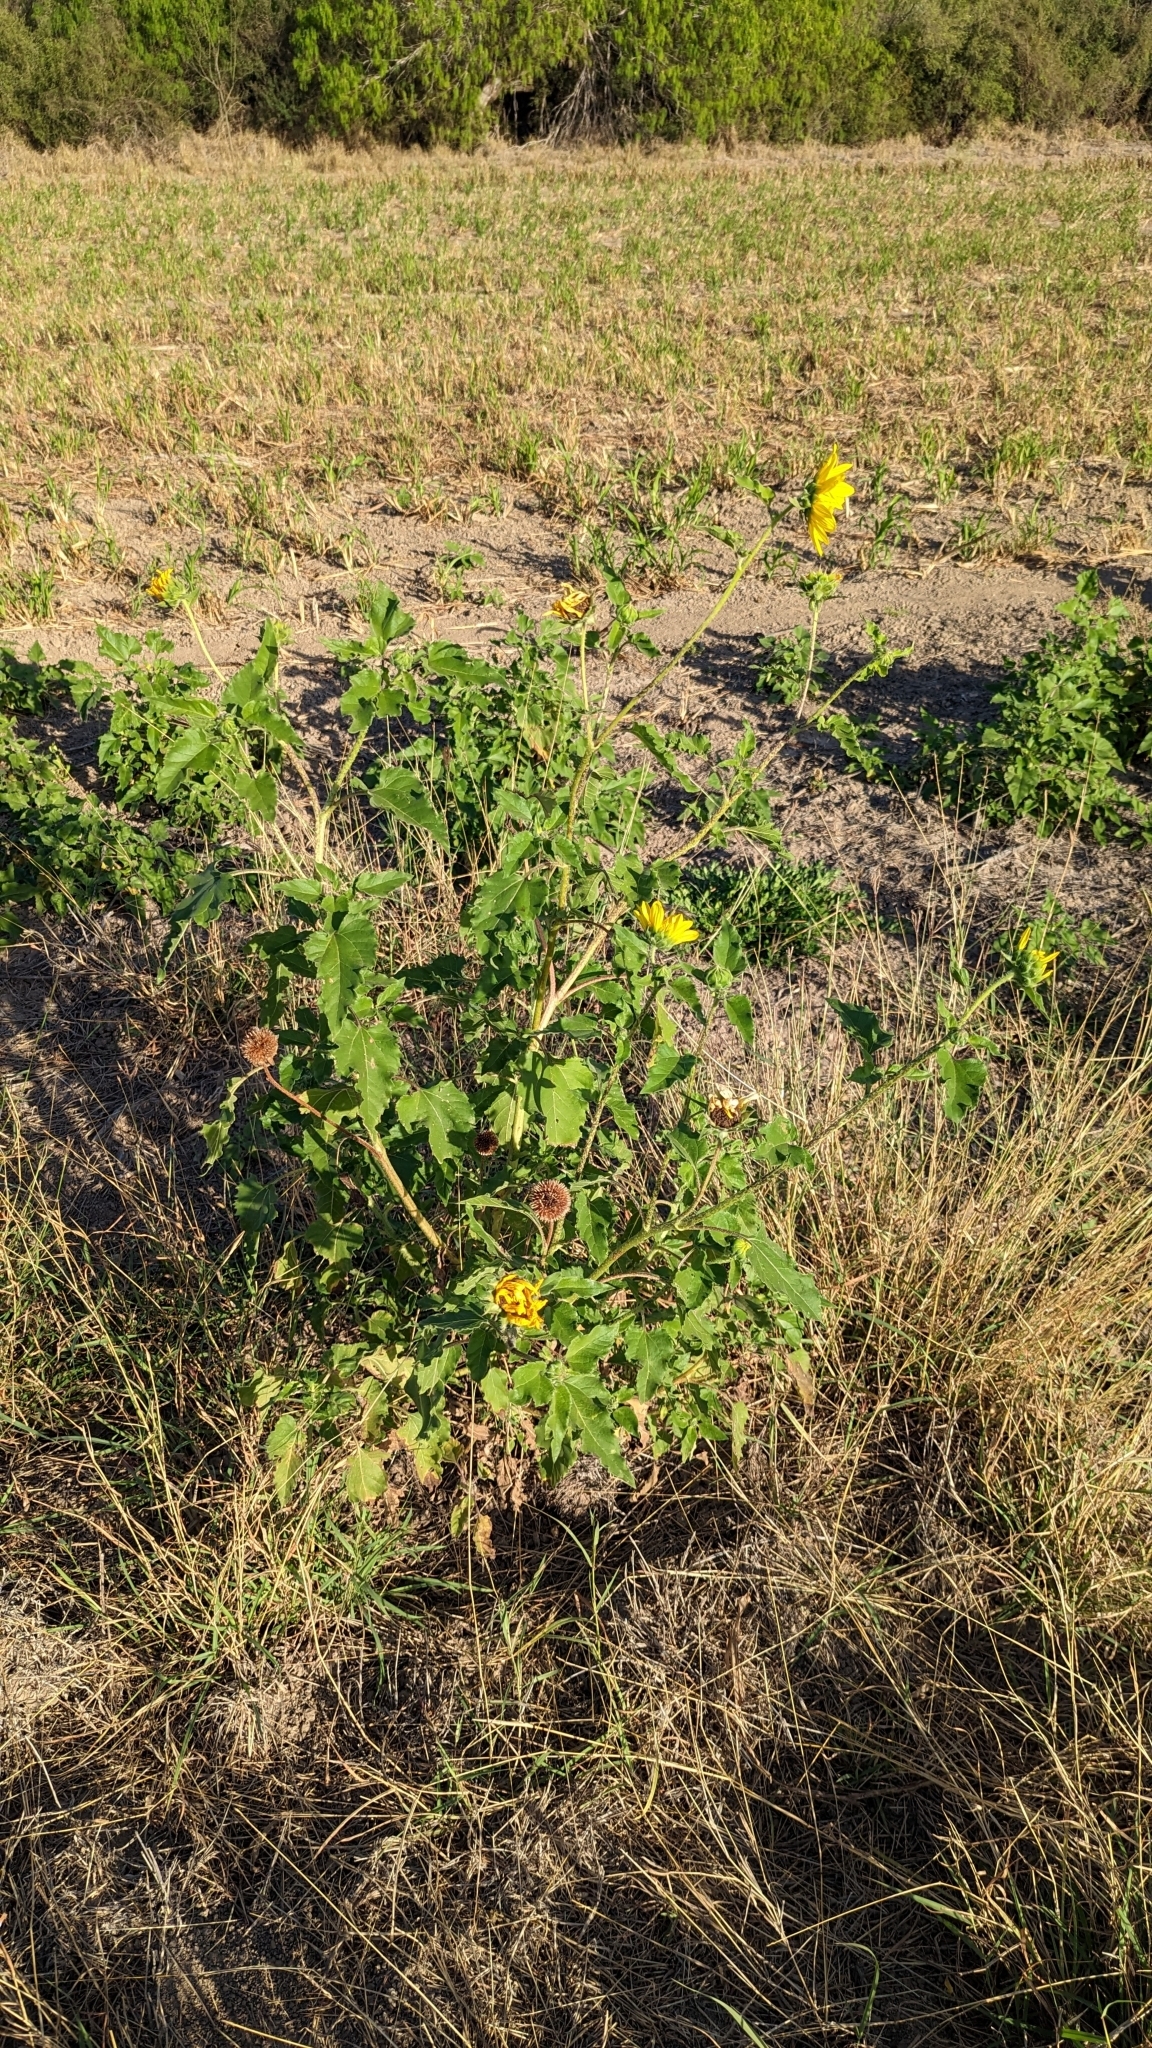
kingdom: Plantae
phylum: Tracheophyta
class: Magnoliopsida
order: Asterales
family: Asteraceae
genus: Helianthus
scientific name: Helianthus annuus
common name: Sunflower
